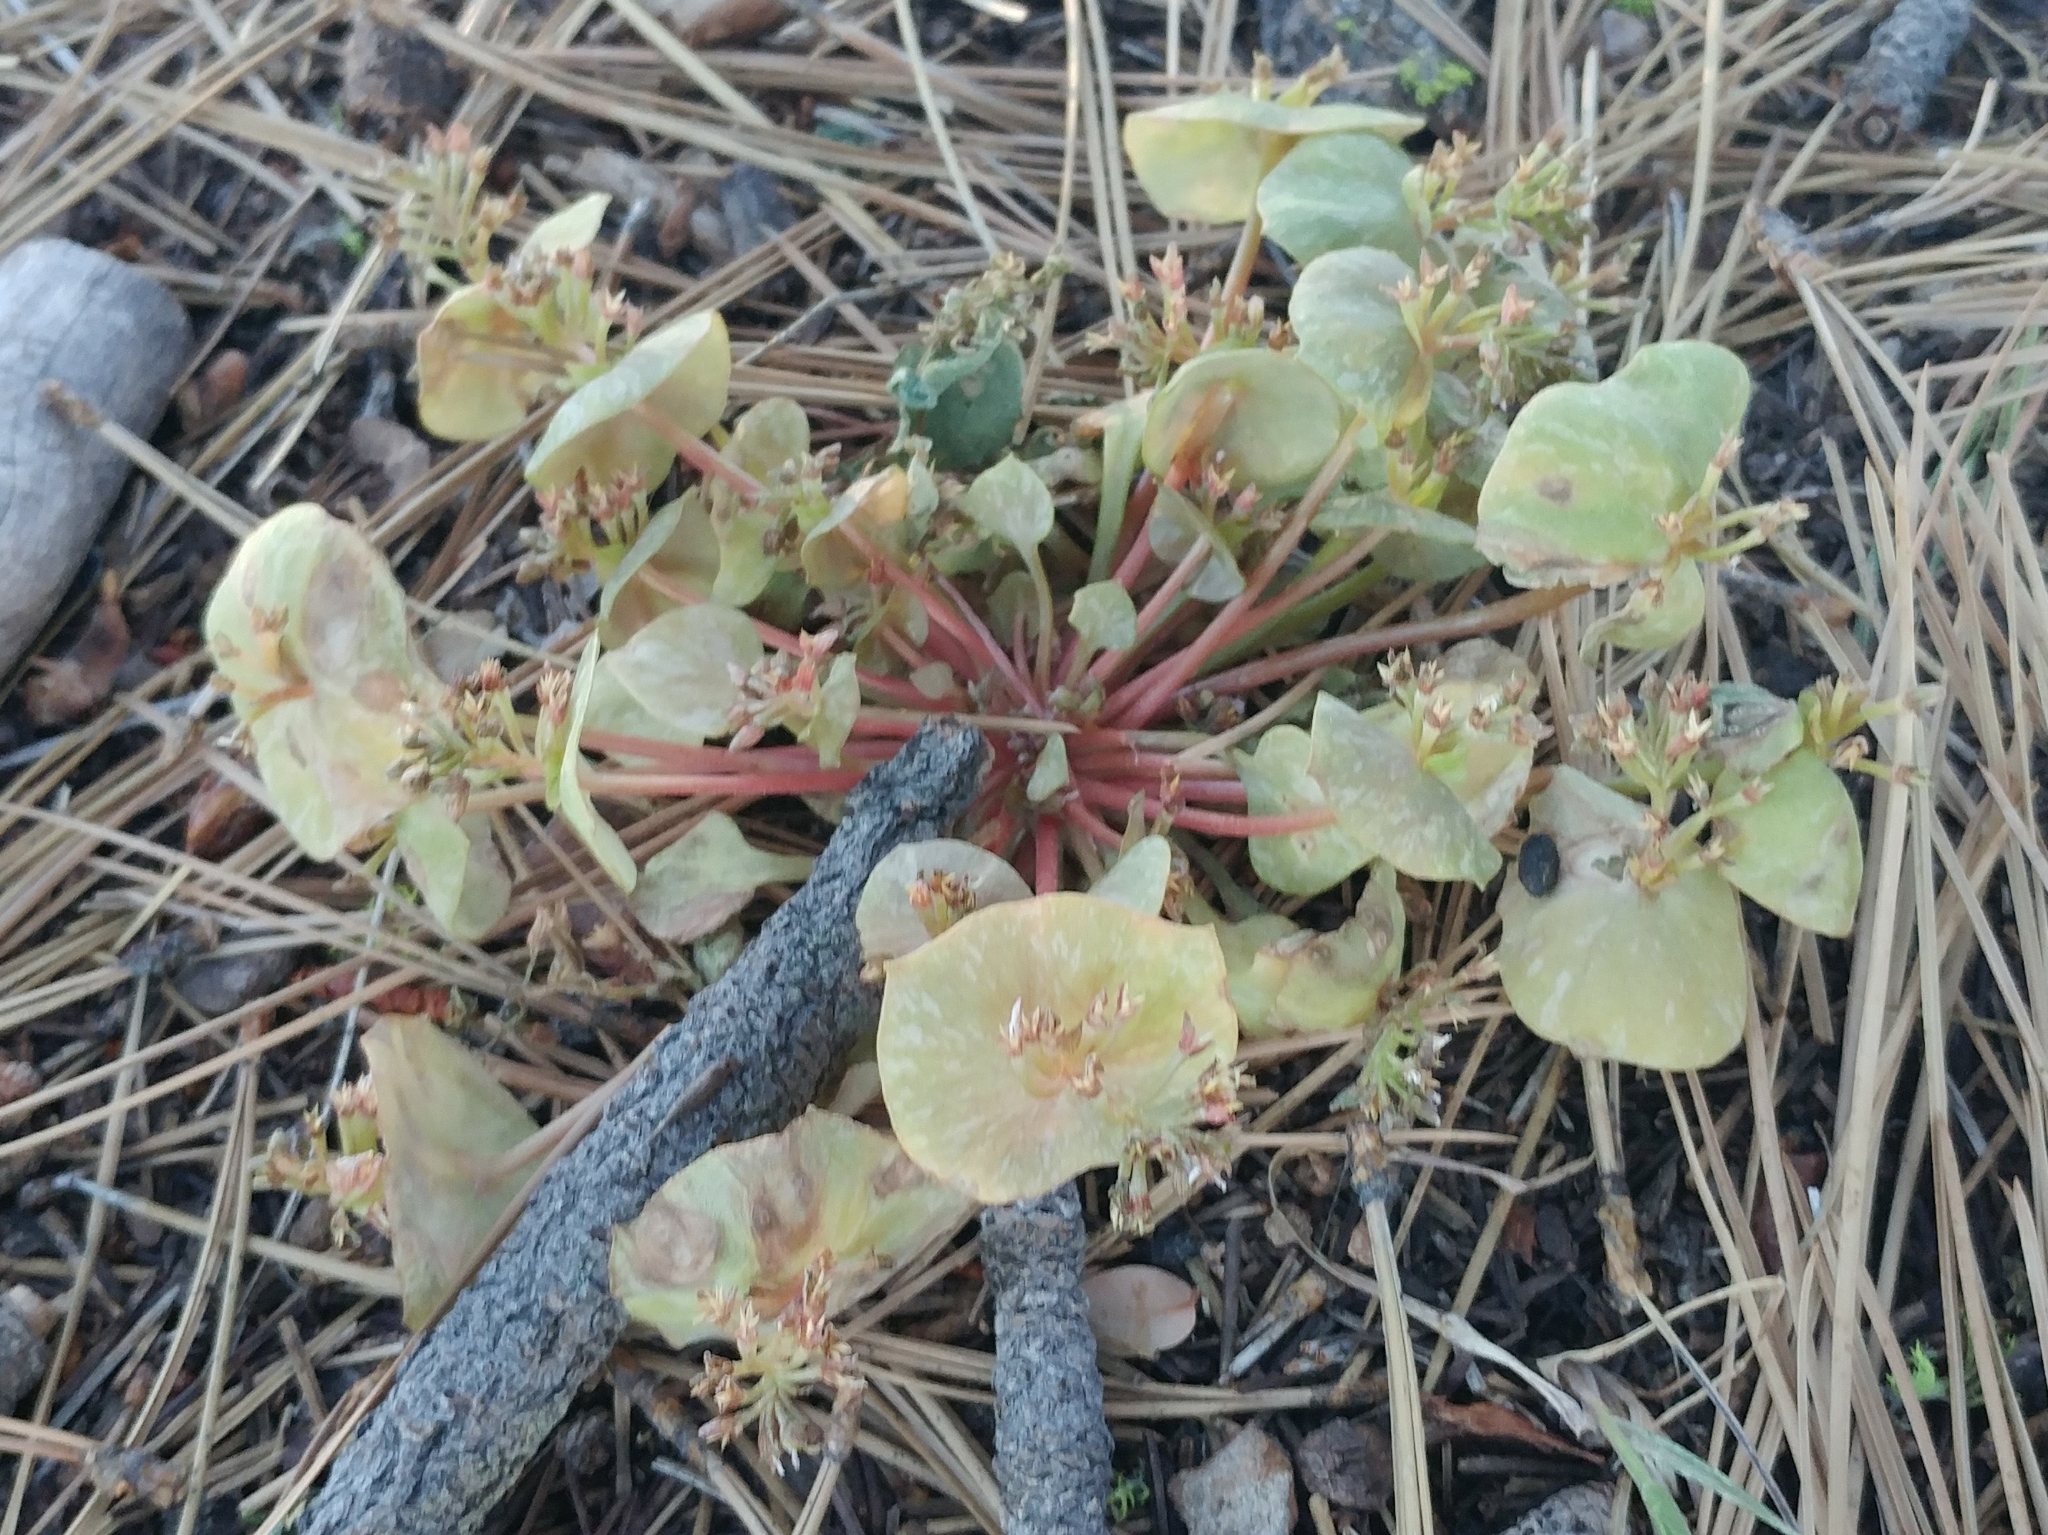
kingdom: Plantae
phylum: Tracheophyta
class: Magnoliopsida
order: Caryophyllales
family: Montiaceae
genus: Claytonia
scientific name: Claytonia perfoliata
